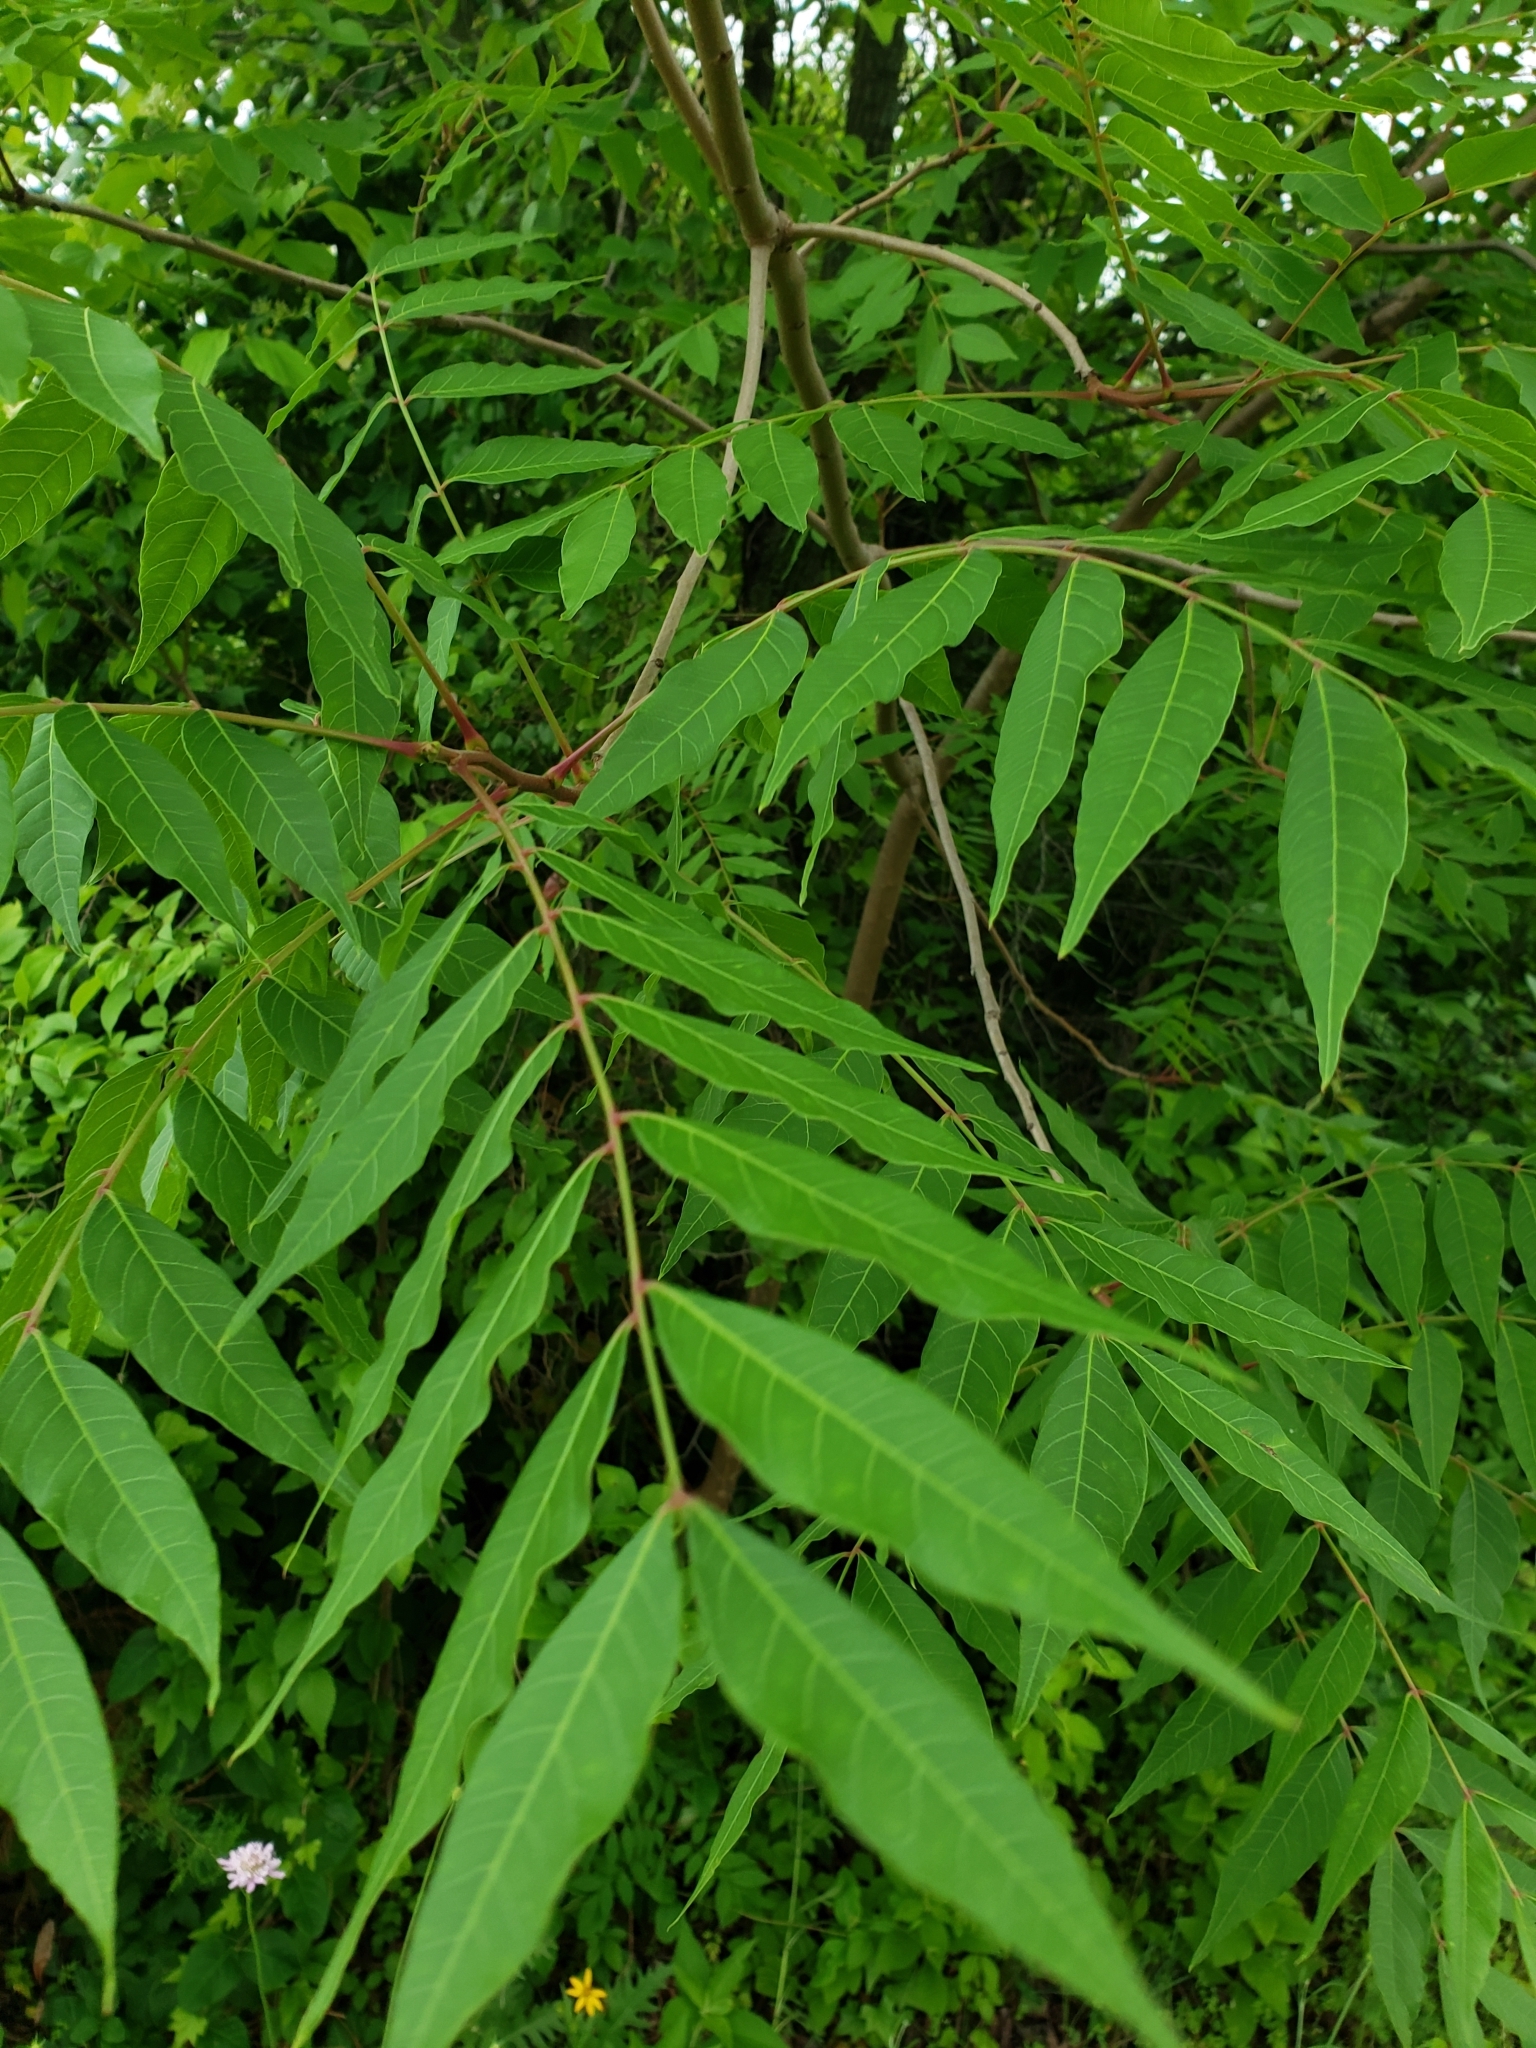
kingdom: Plantae
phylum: Tracheophyta
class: Magnoliopsida
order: Sapindales
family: Anacardiaceae
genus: Pistacia
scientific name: Pistacia chinensis
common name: Chinese pistache
